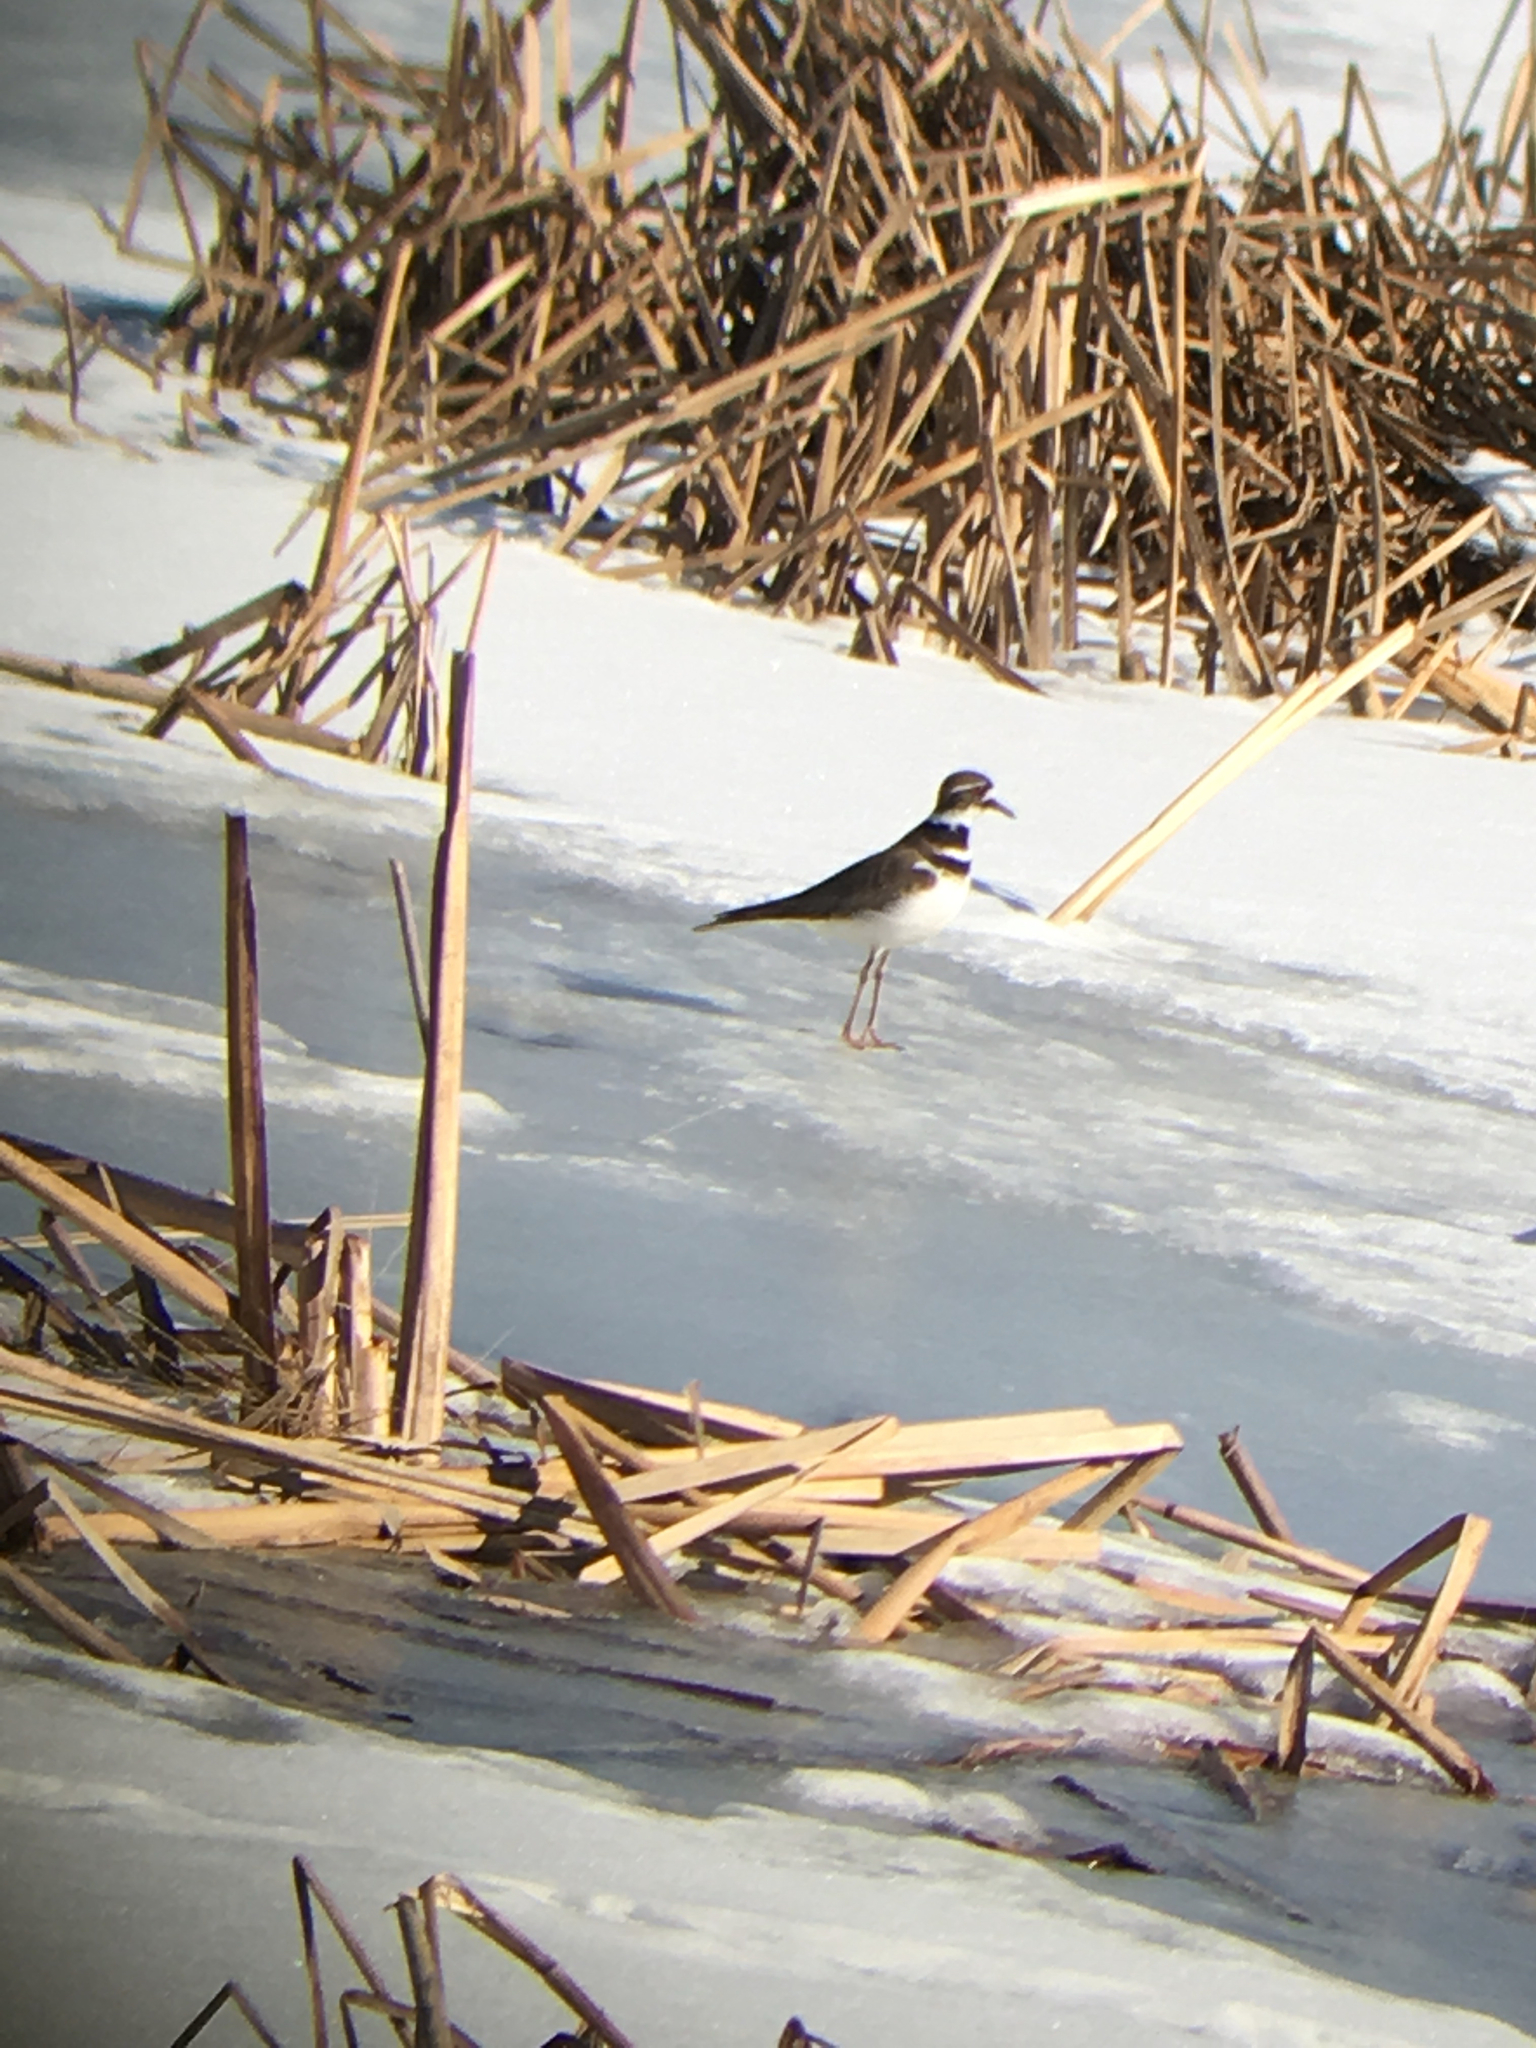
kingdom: Animalia
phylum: Chordata
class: Aves
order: Charadriiformes
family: Charadriidae
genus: Charadrius
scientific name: Charadrius vociferus
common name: Killdeer
